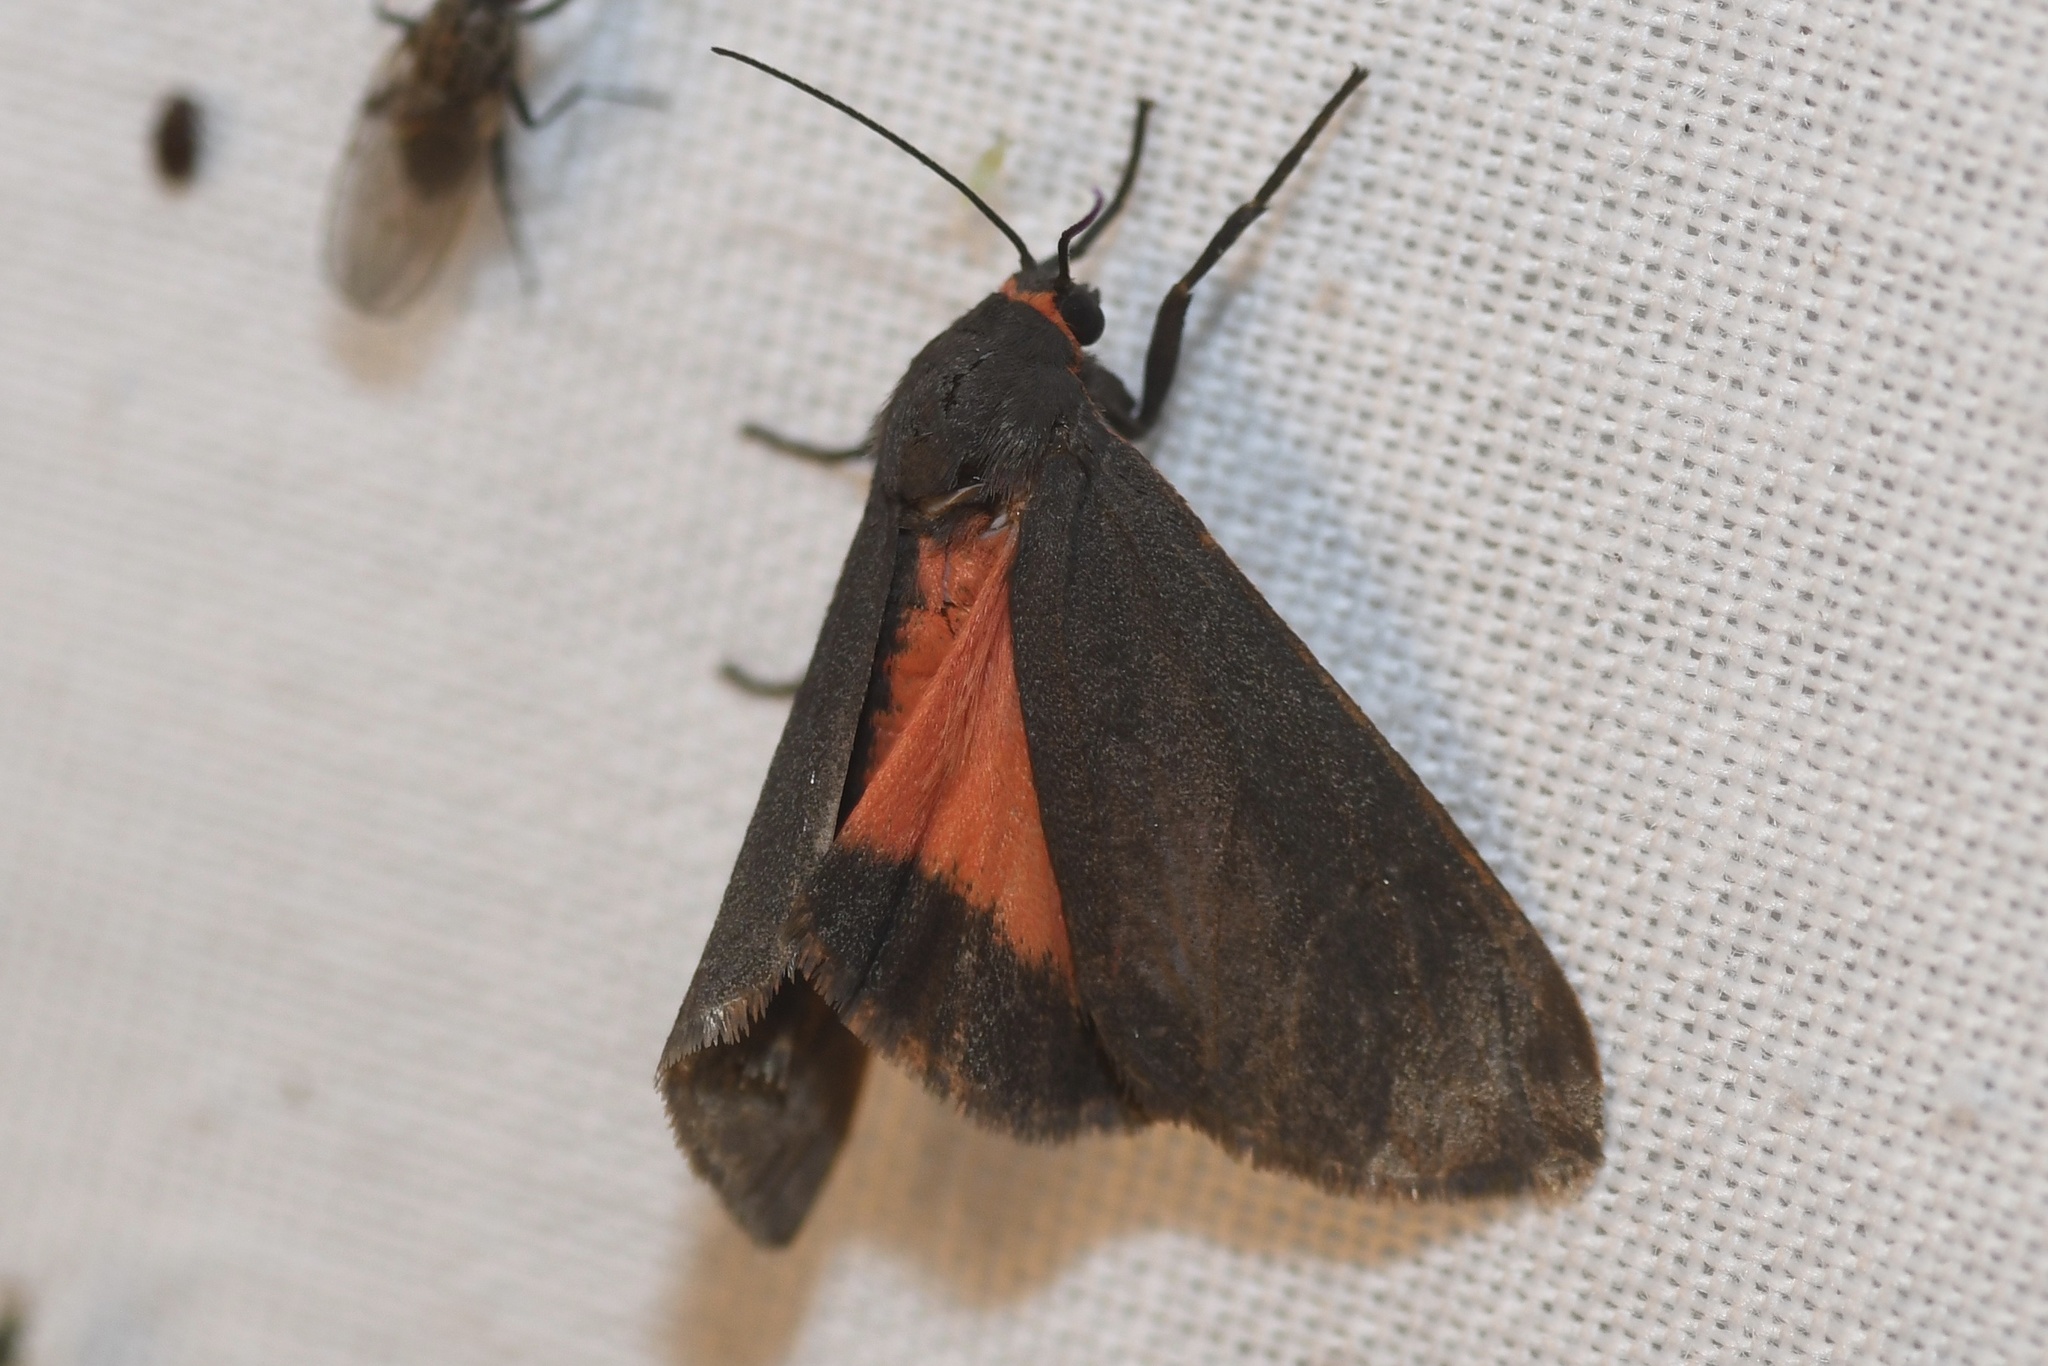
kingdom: Animalia
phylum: Arthropoda
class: Insecta
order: Lepidoptera
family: Erebidae
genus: Virbia
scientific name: Virbia laeta
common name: Joyful holomelina moth
